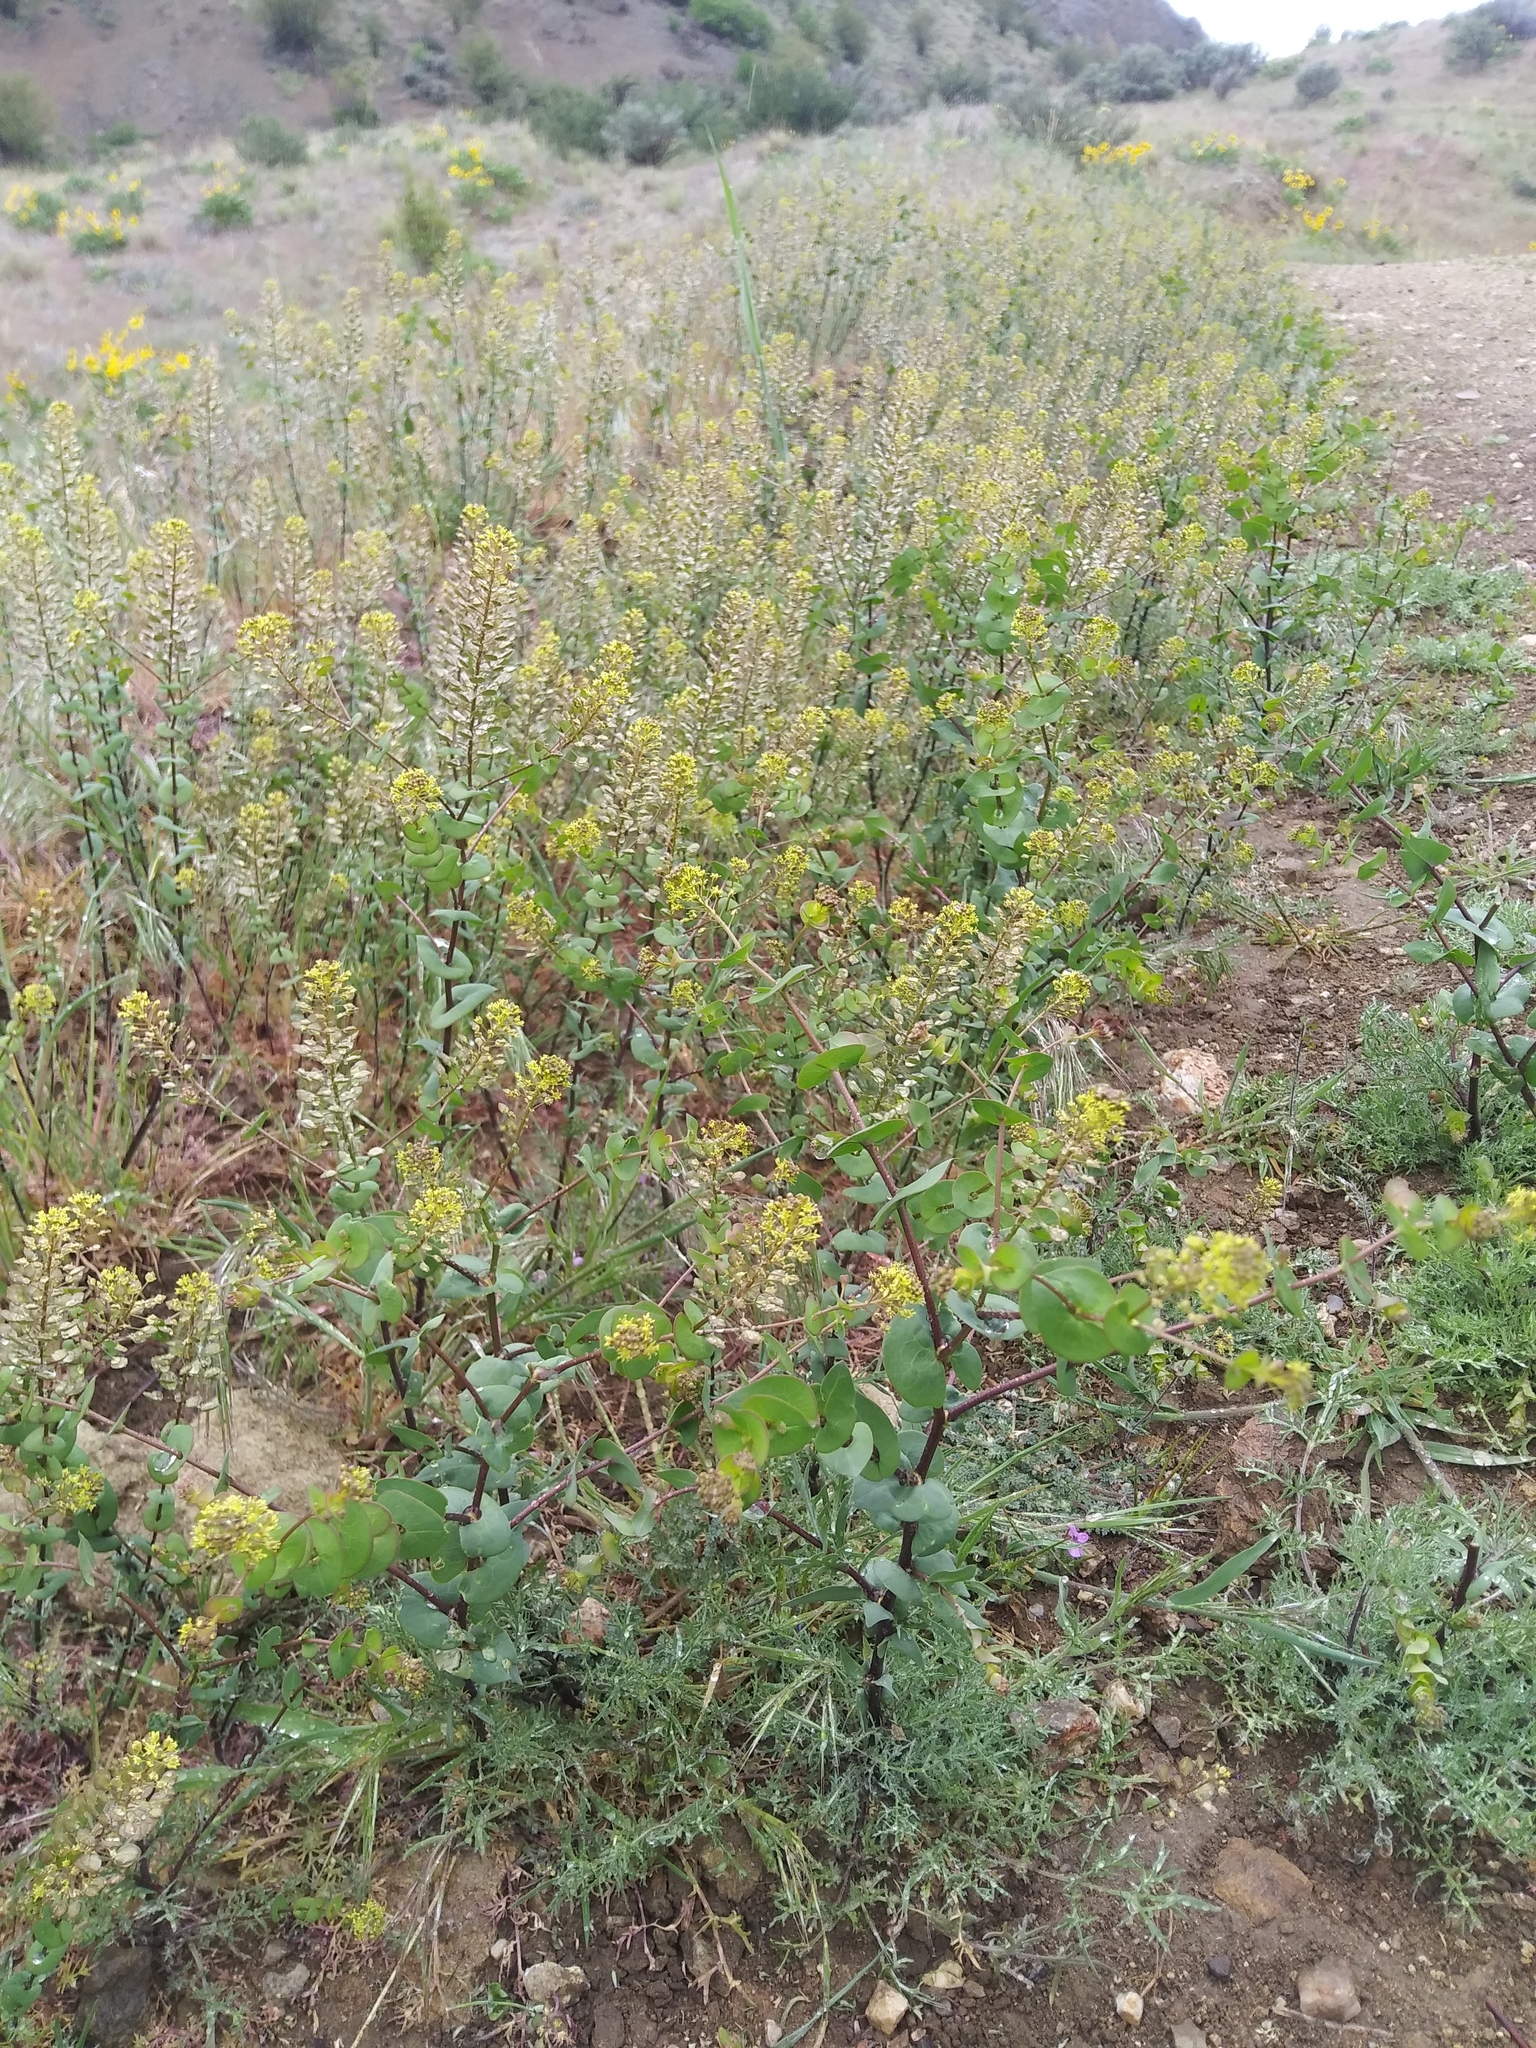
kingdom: Plantae
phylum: Tracheophyta
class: Magnoliopsida
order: Brassicales
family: Brassicaceae
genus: Lepidium
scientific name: Lepidium perfoliatum
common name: Perfoliate pepperwort
